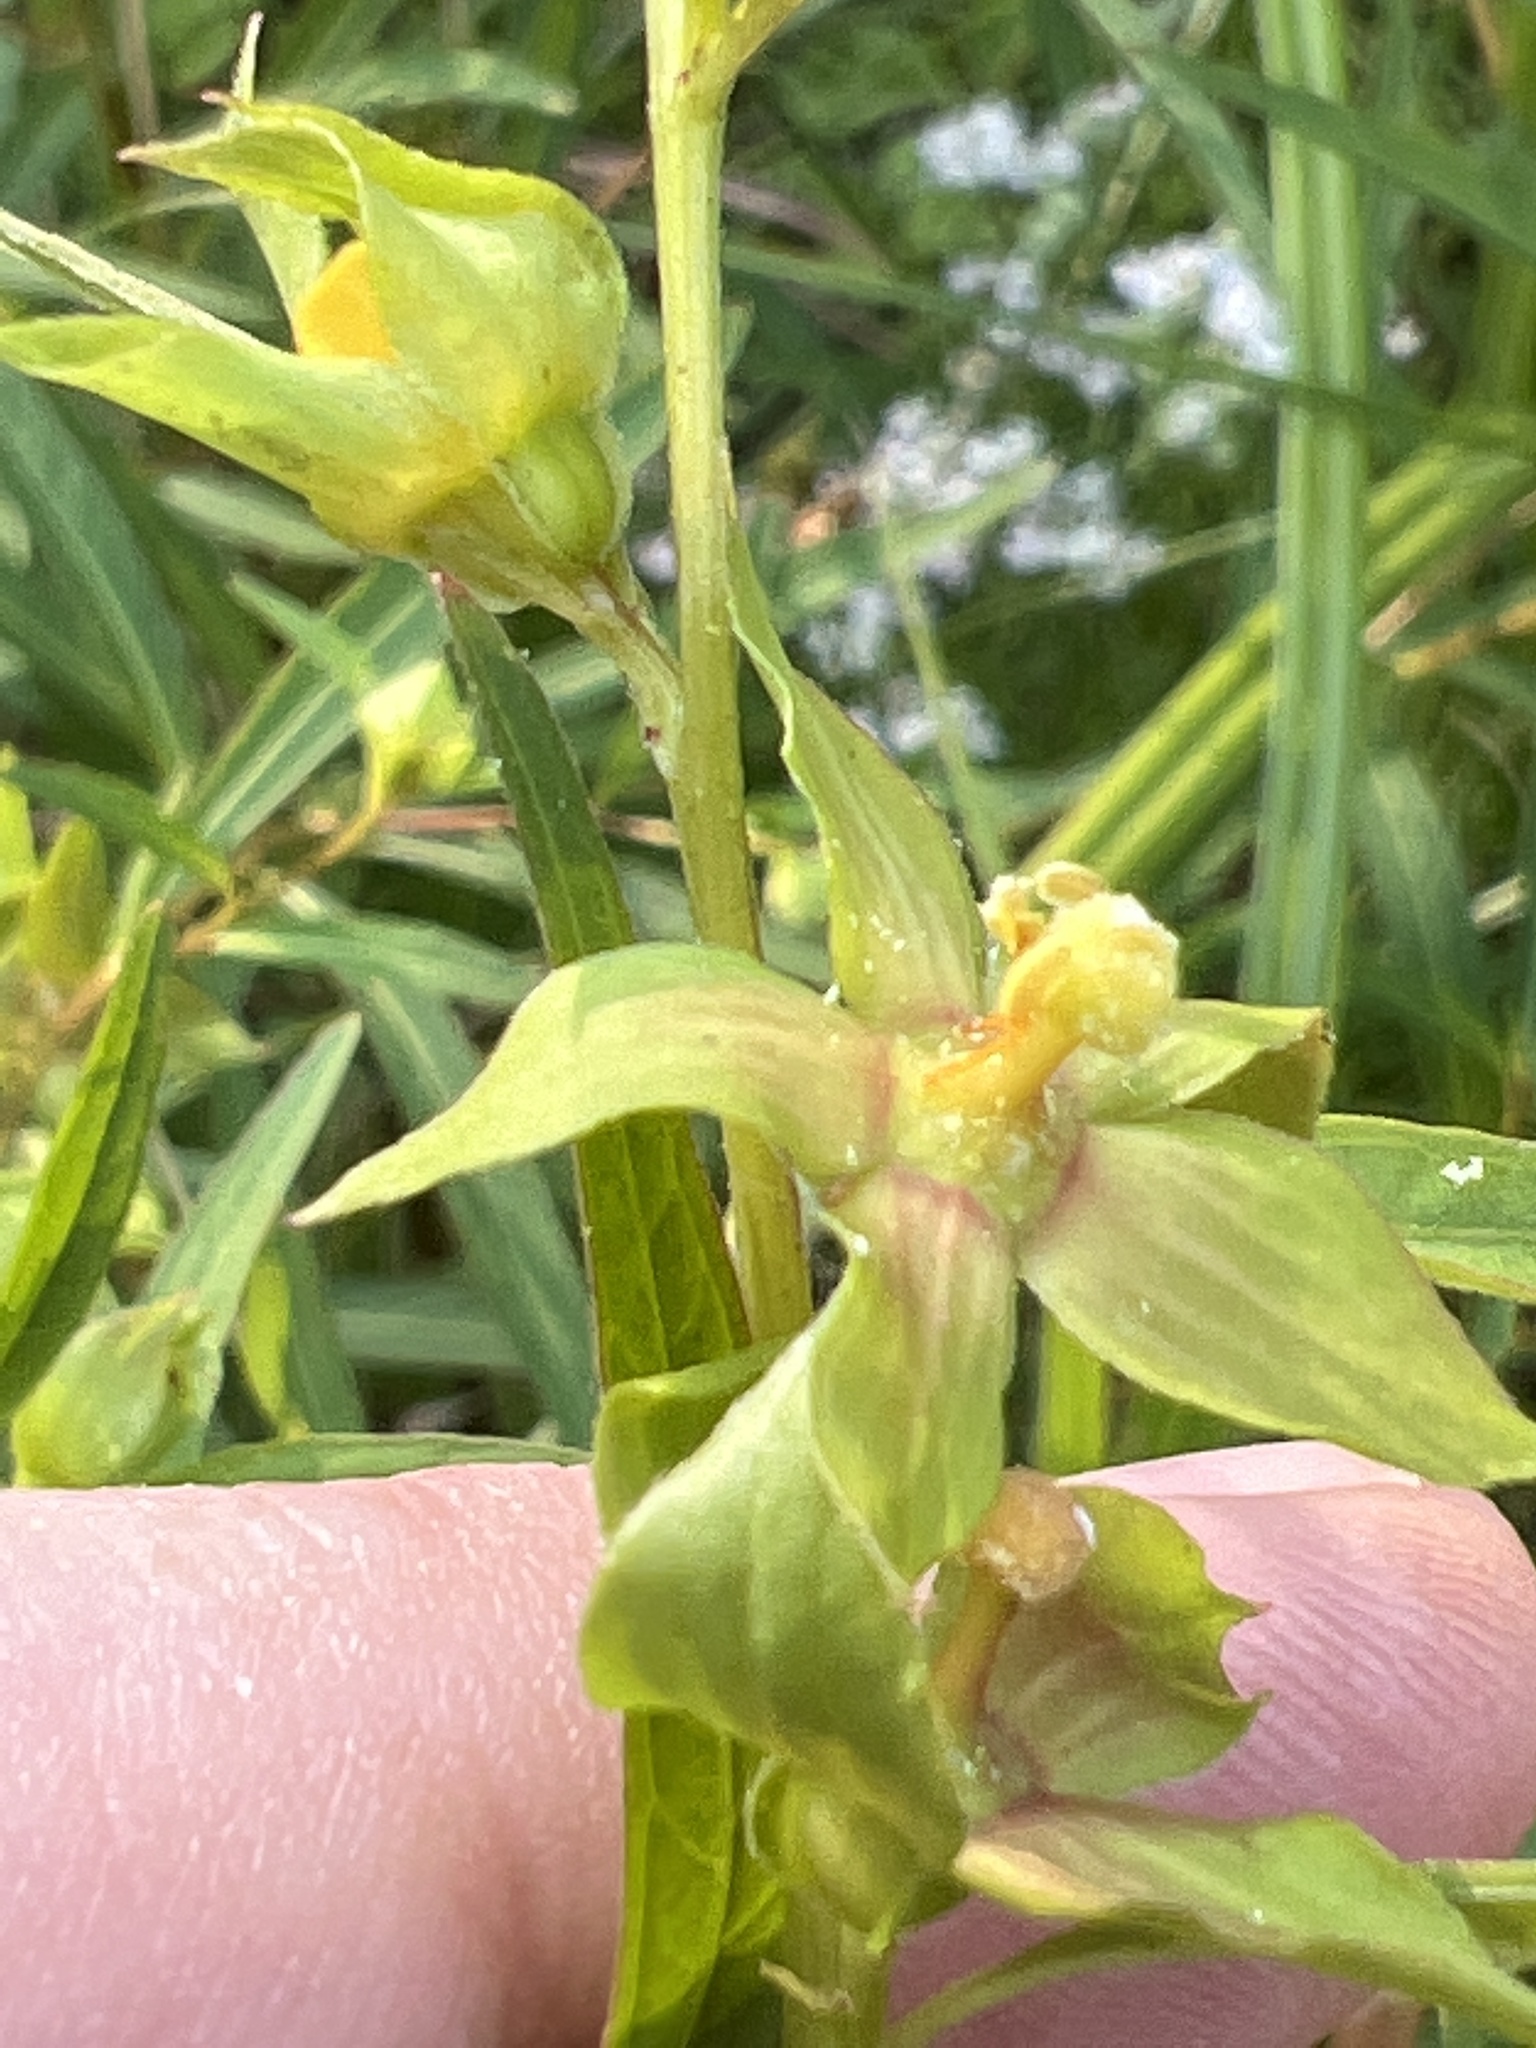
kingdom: Plantae
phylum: Tracheophyta
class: Magnoliopsida
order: Myrtales
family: Onagraceae
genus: Ludwigia
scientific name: Ludwigia alternifolia
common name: Rattlebox
